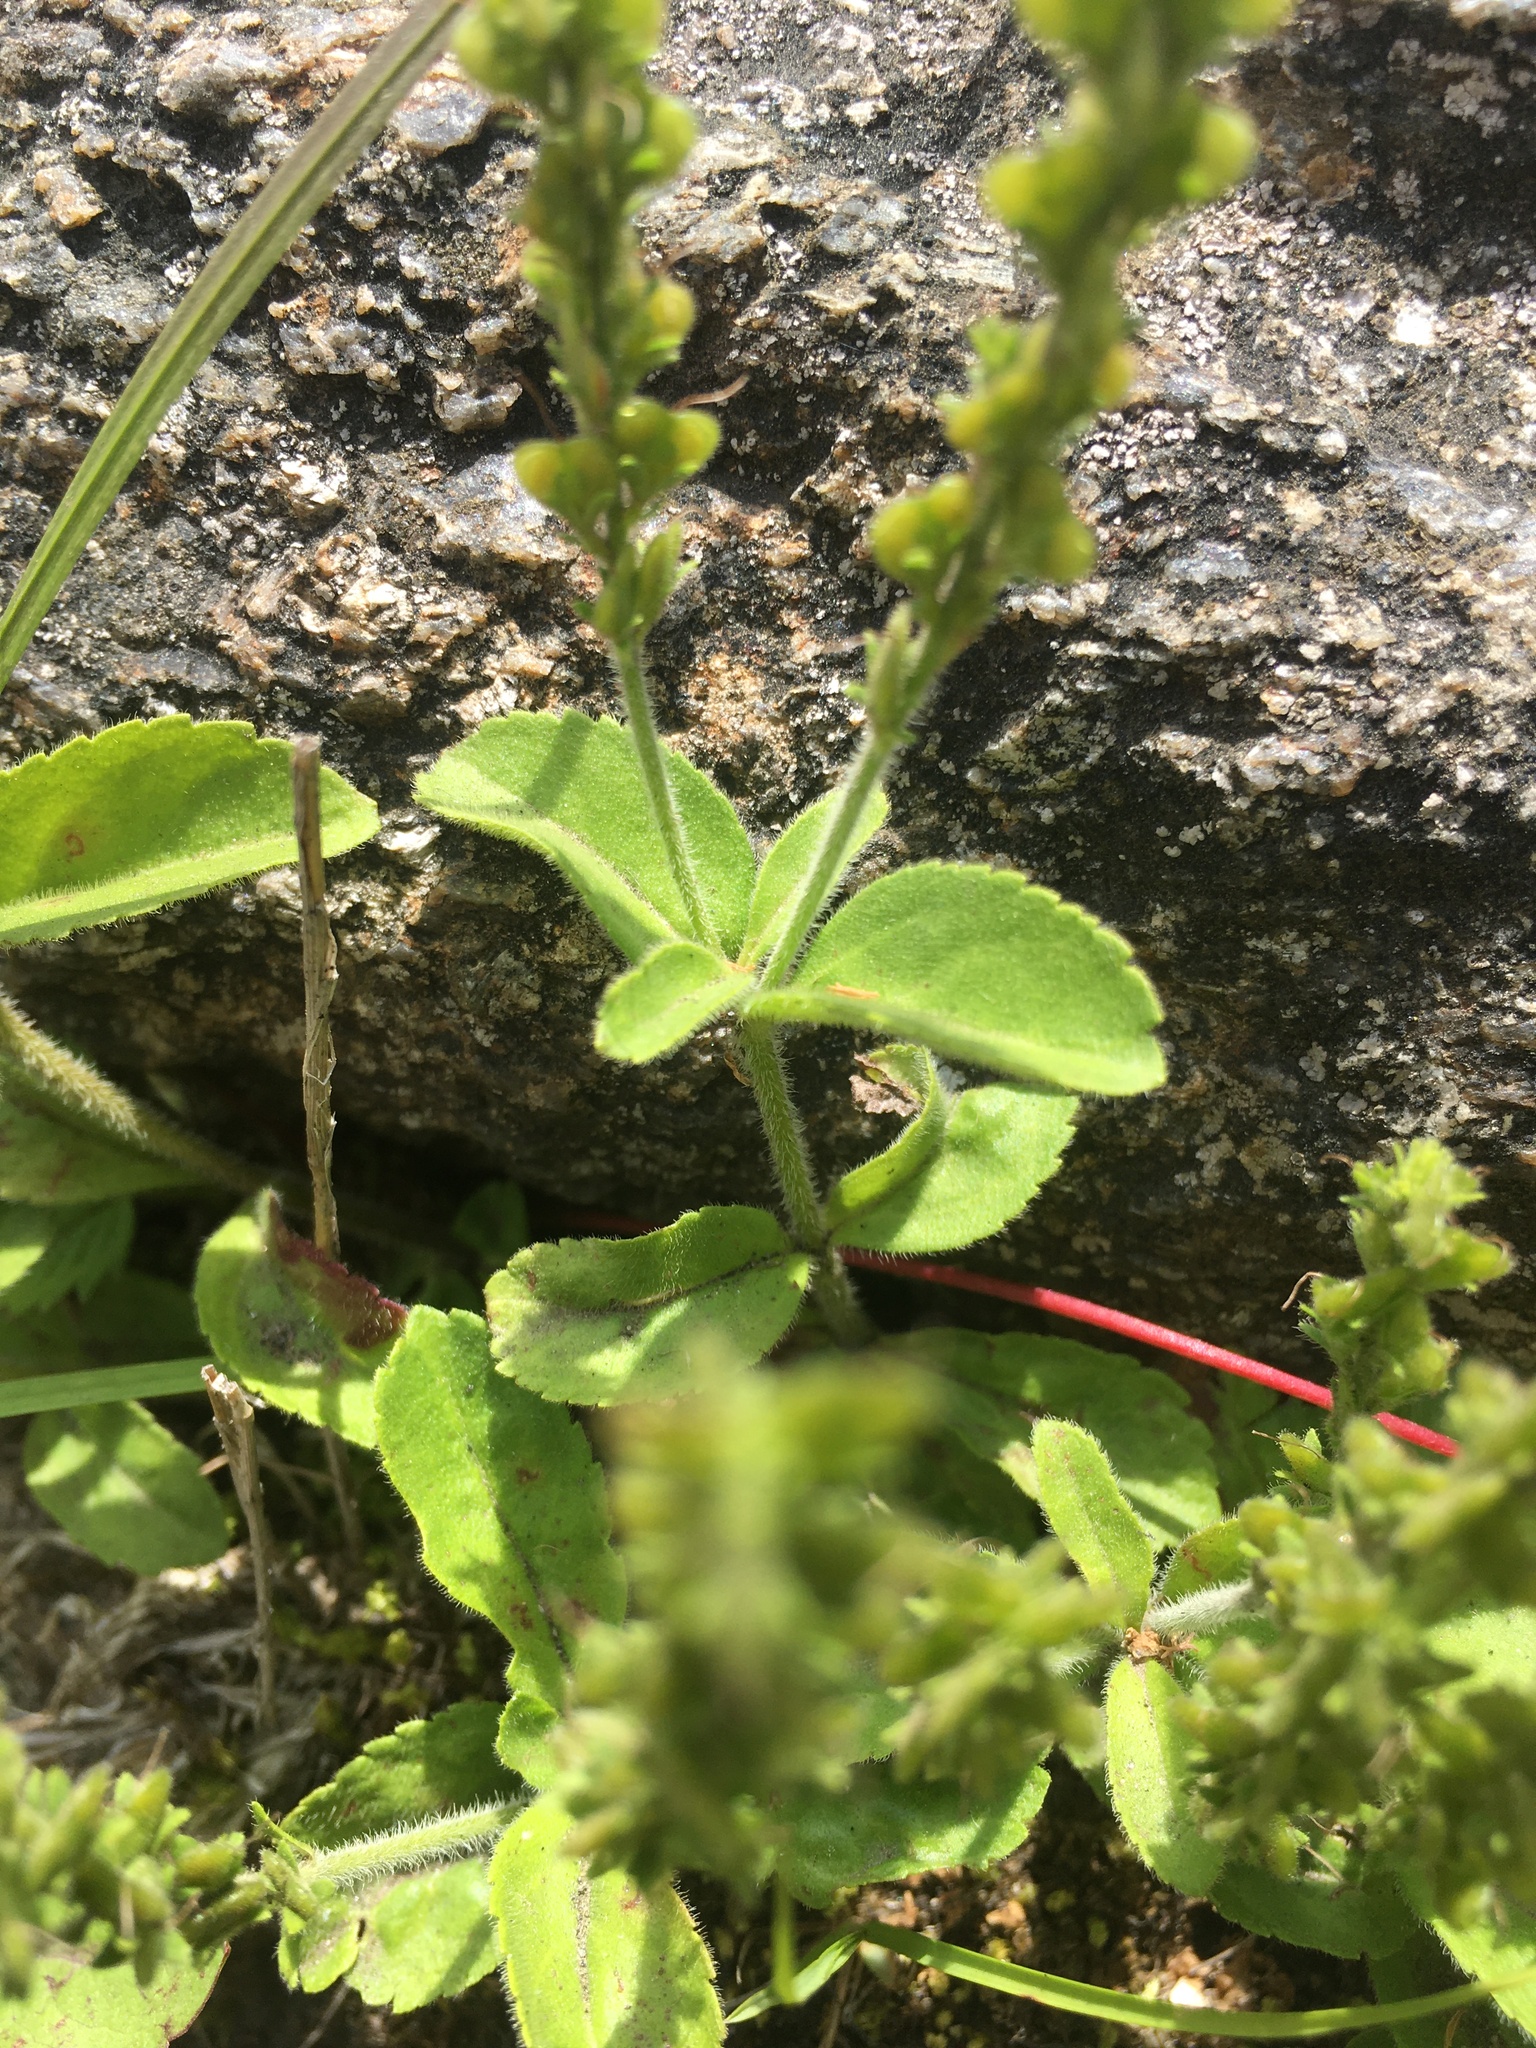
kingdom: Plantae
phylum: Tracheophyta
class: Magnoliopsida
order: Lamiales
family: Plantaginaceae
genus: Veronica
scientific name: Veronica officinalis
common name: Common speedwell
